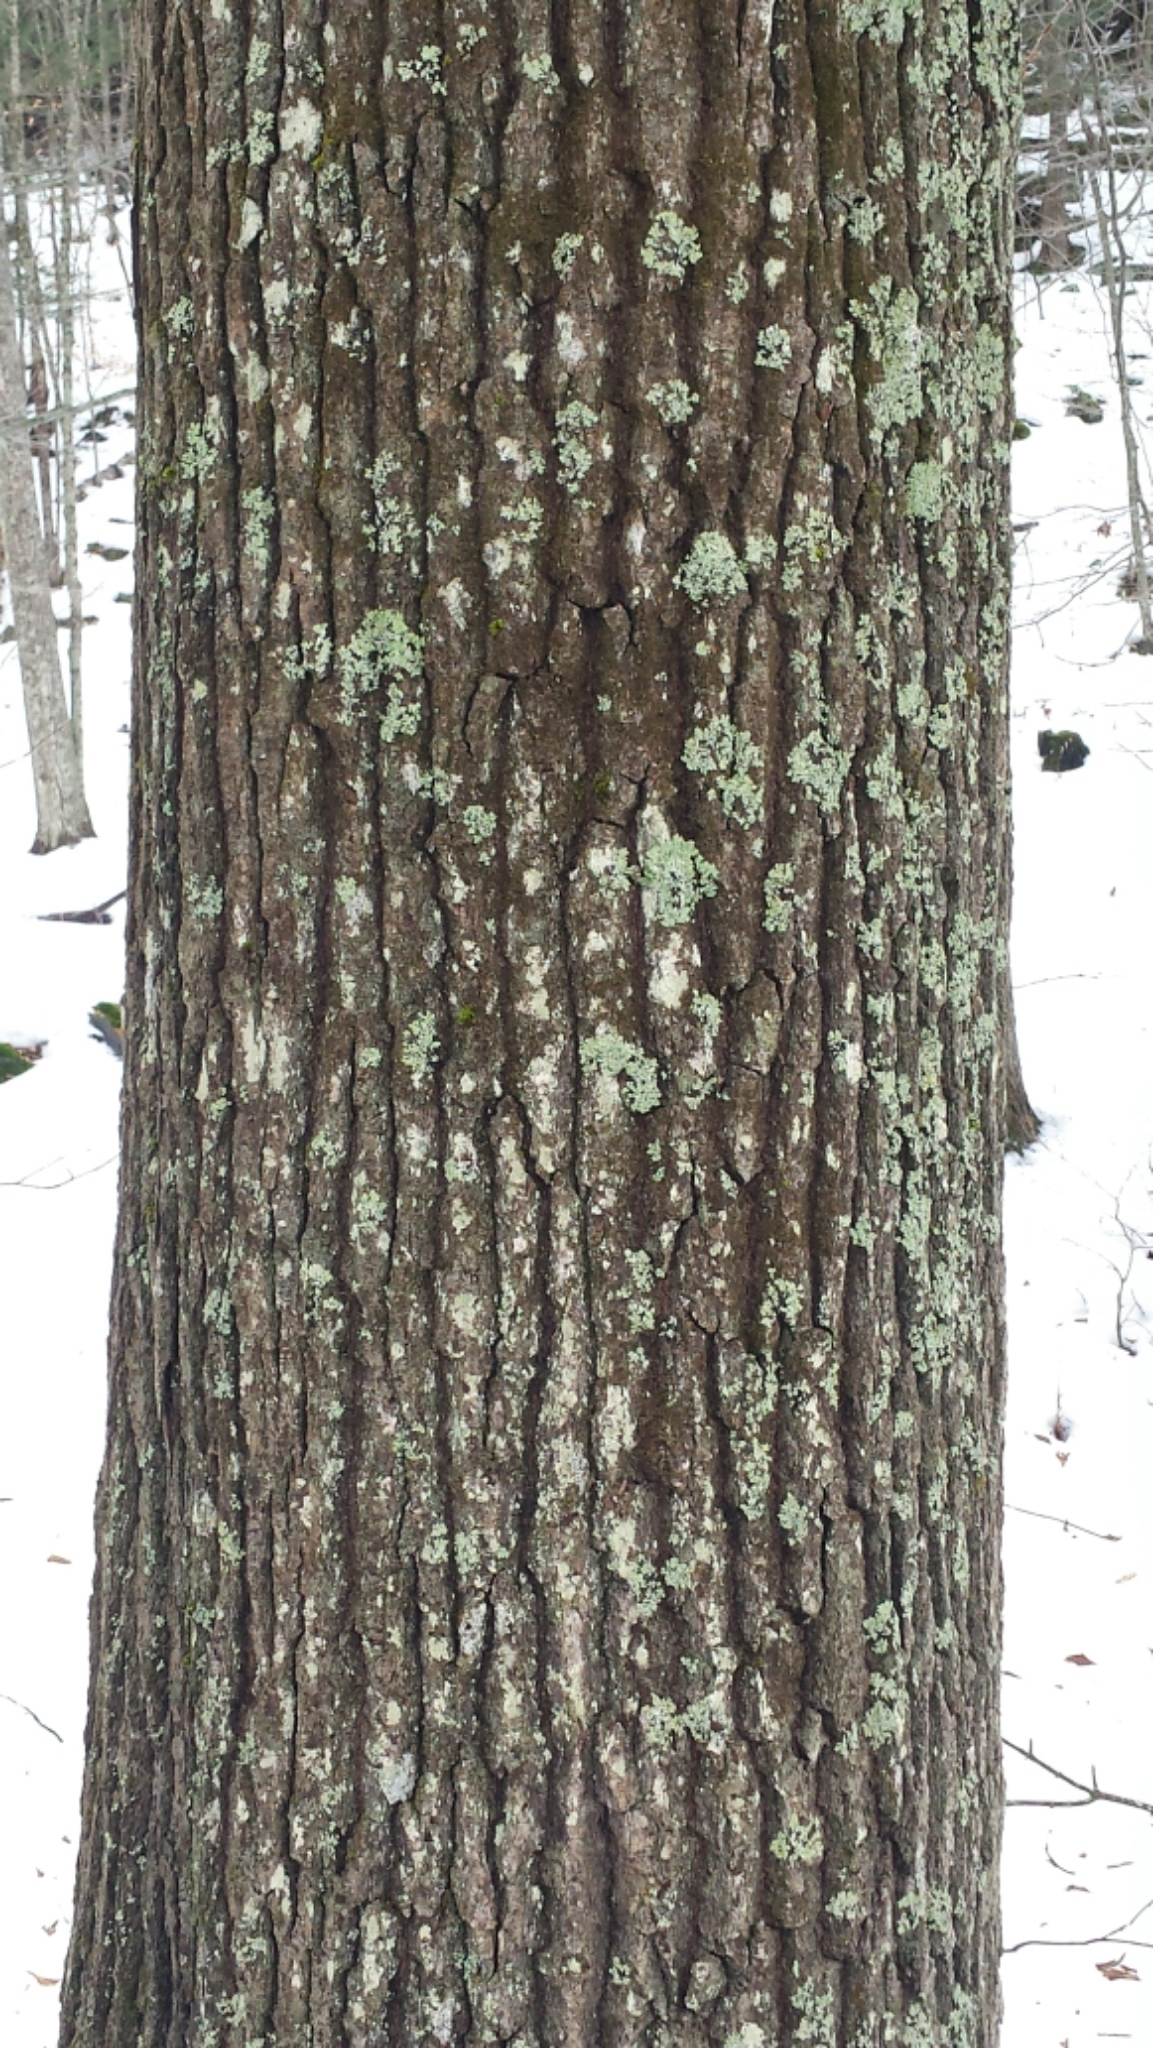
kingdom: Plantae
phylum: Tracheophyta
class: Magnoliopsida
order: Fagales
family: Fagaceae
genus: Quercus
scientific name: Quercus rubra
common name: Red oak
